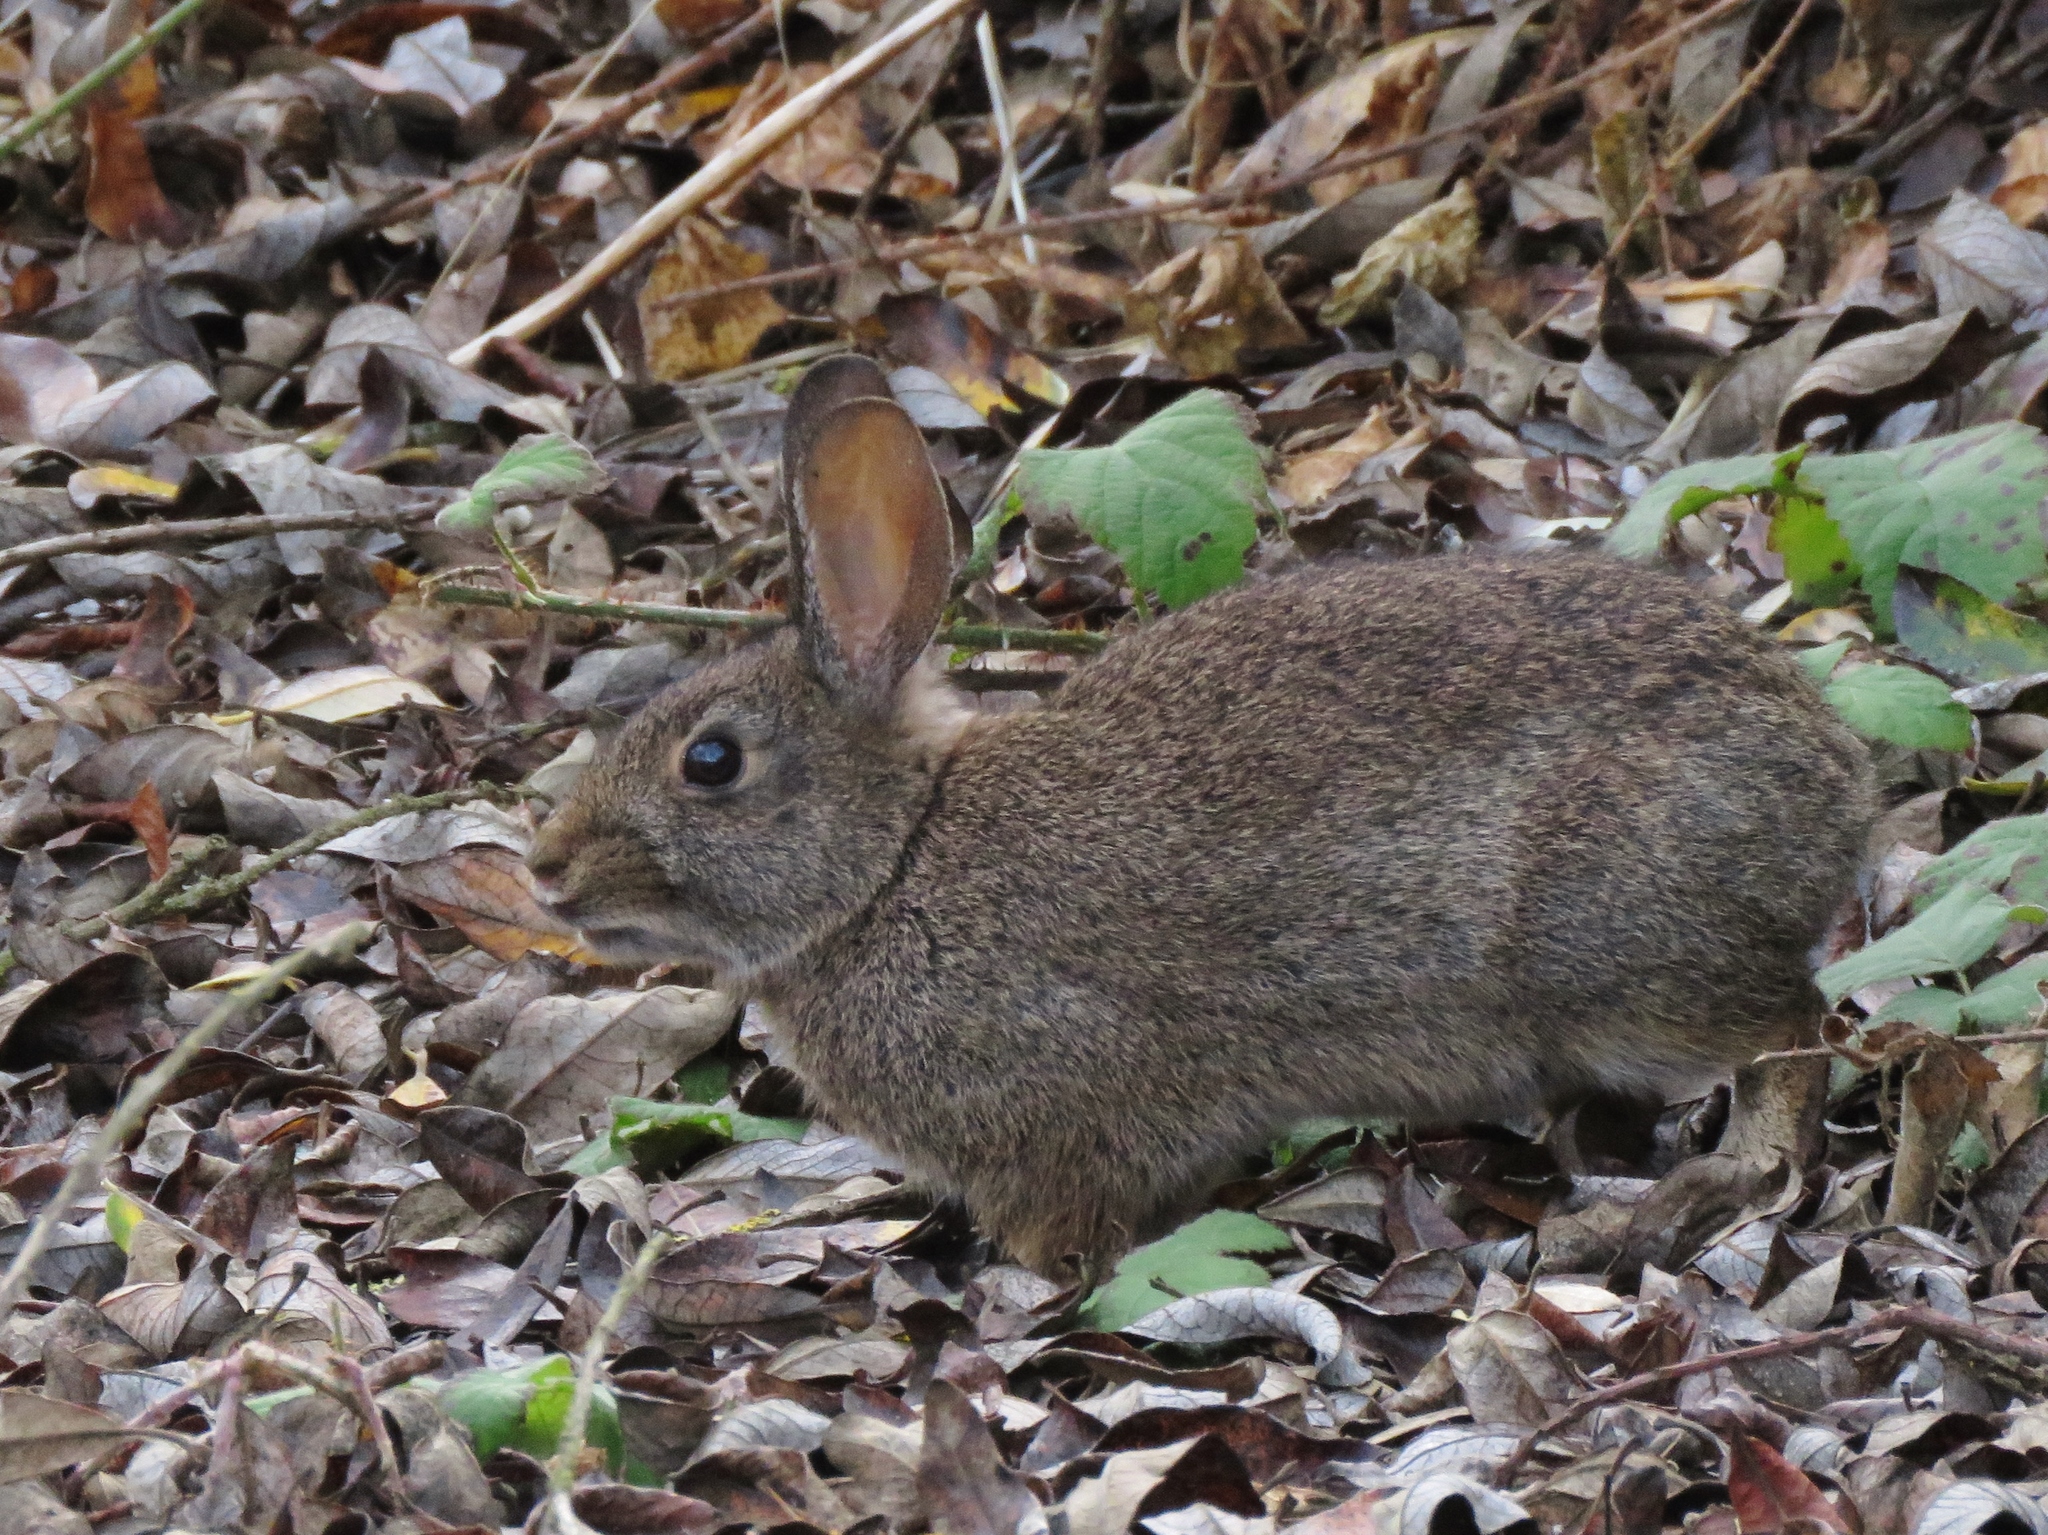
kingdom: Animalia
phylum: Chordata
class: Mammalia
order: Lagomorpha
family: Leporidae
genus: Sylvilagus
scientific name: Sylvilagus bachmani
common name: Brush rabbit
